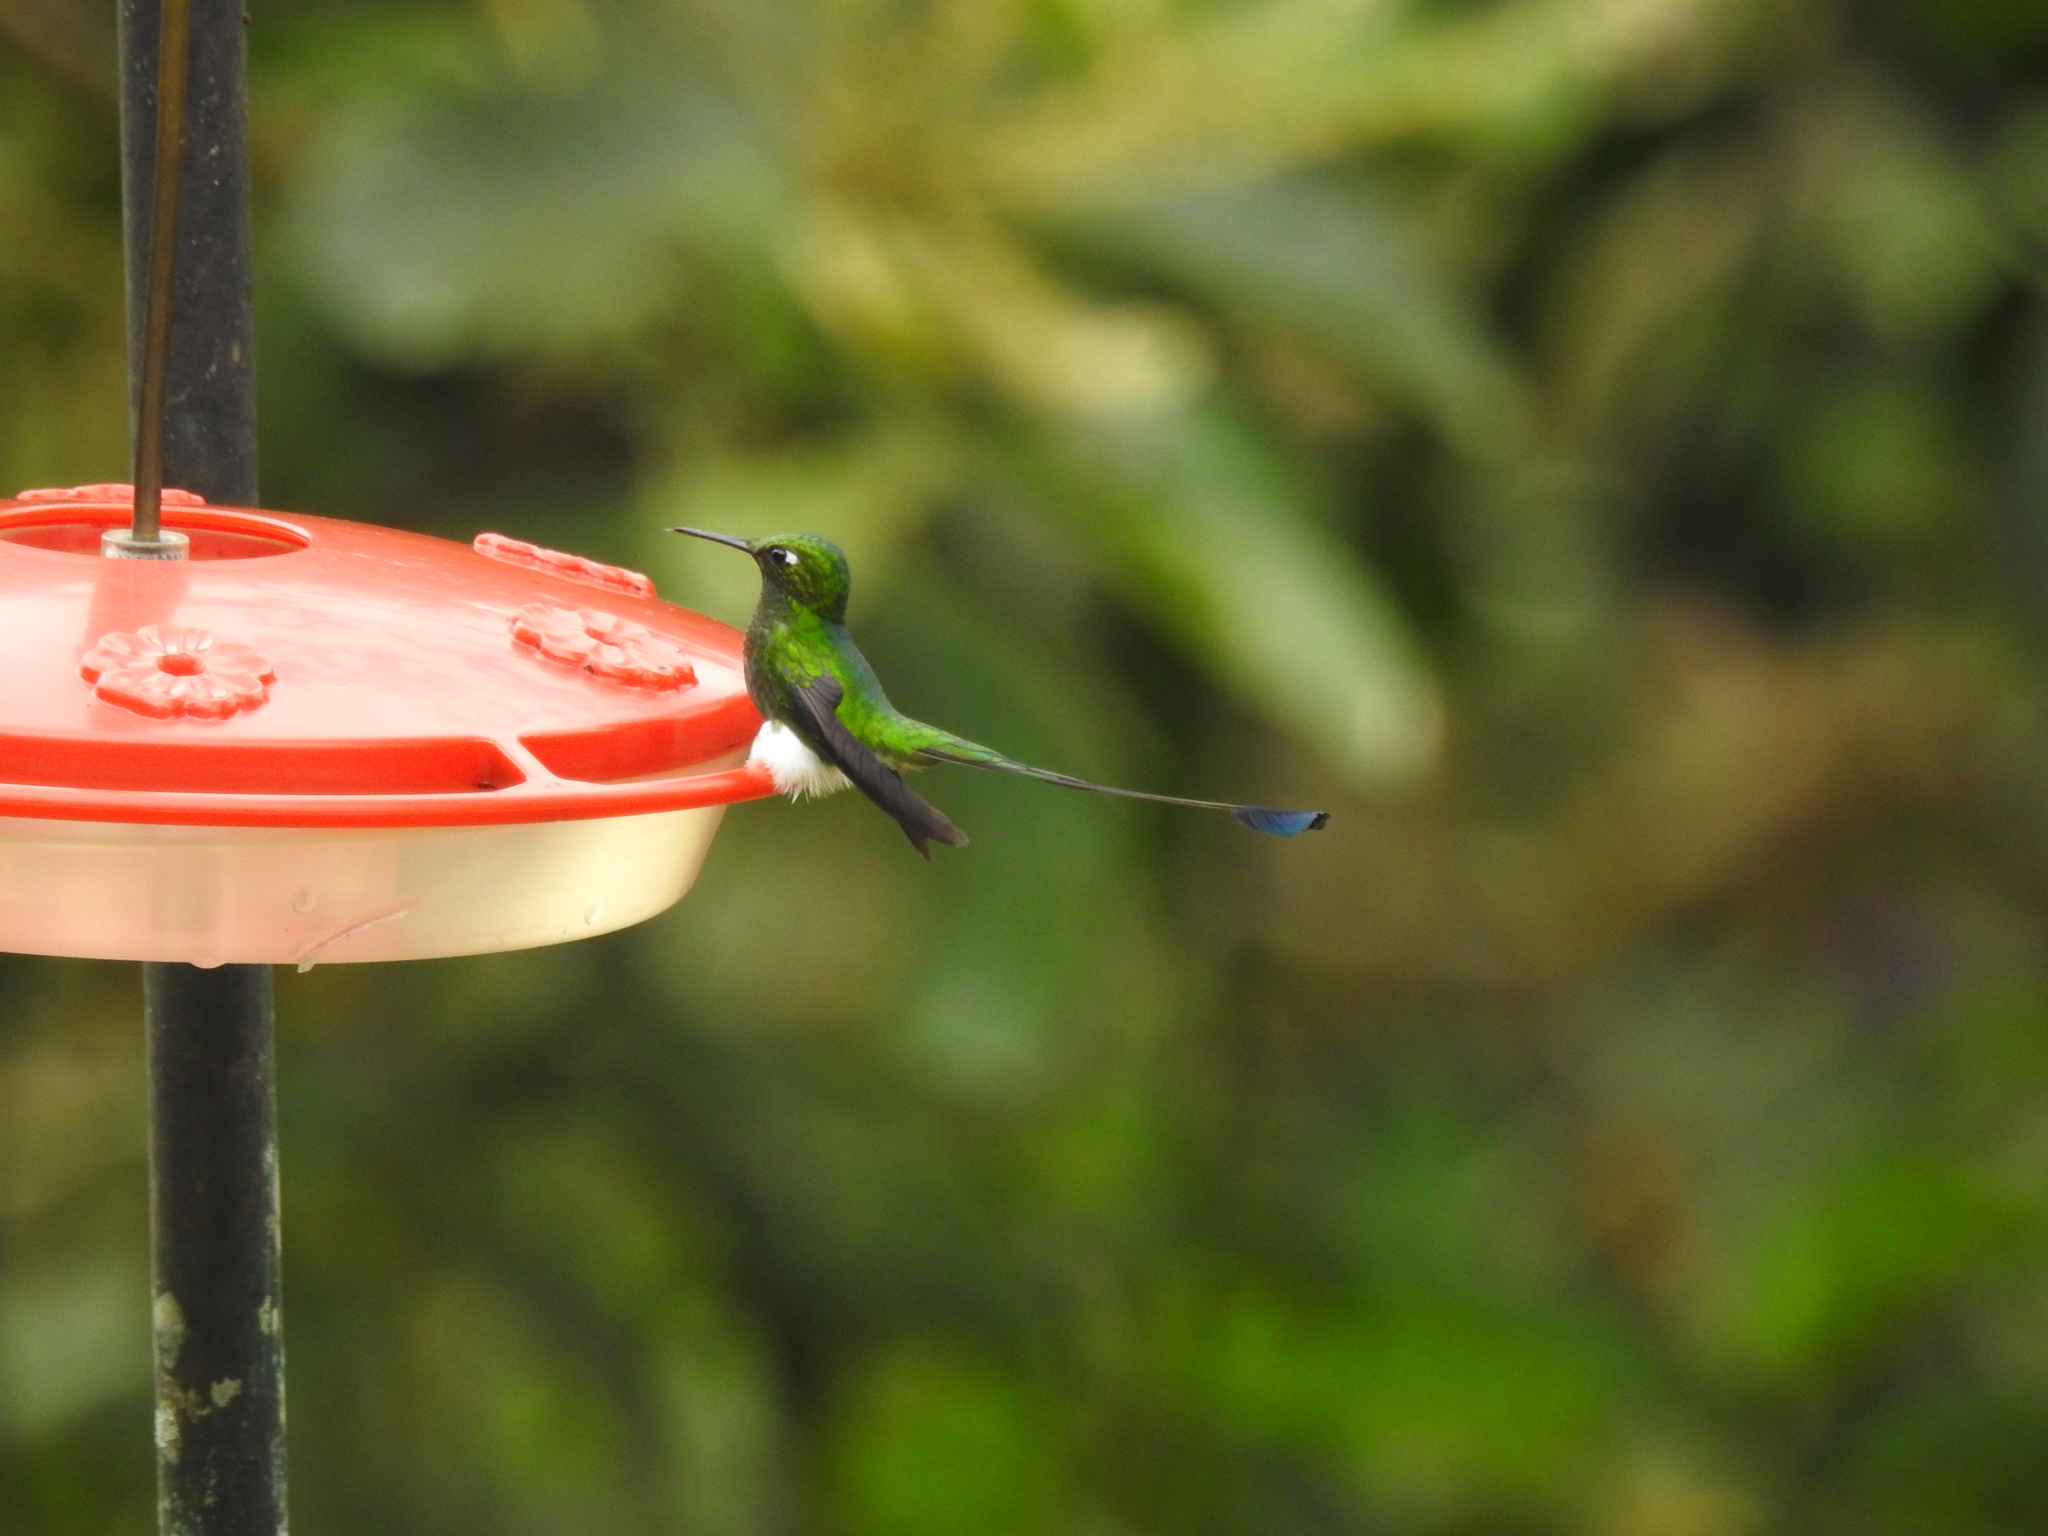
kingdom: Animalia
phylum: Chordata
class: Aves
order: Apodiformes
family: Trochilidae
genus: Ocreatus
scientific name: Ocreatus underwoodii
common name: Booted racket-tail
